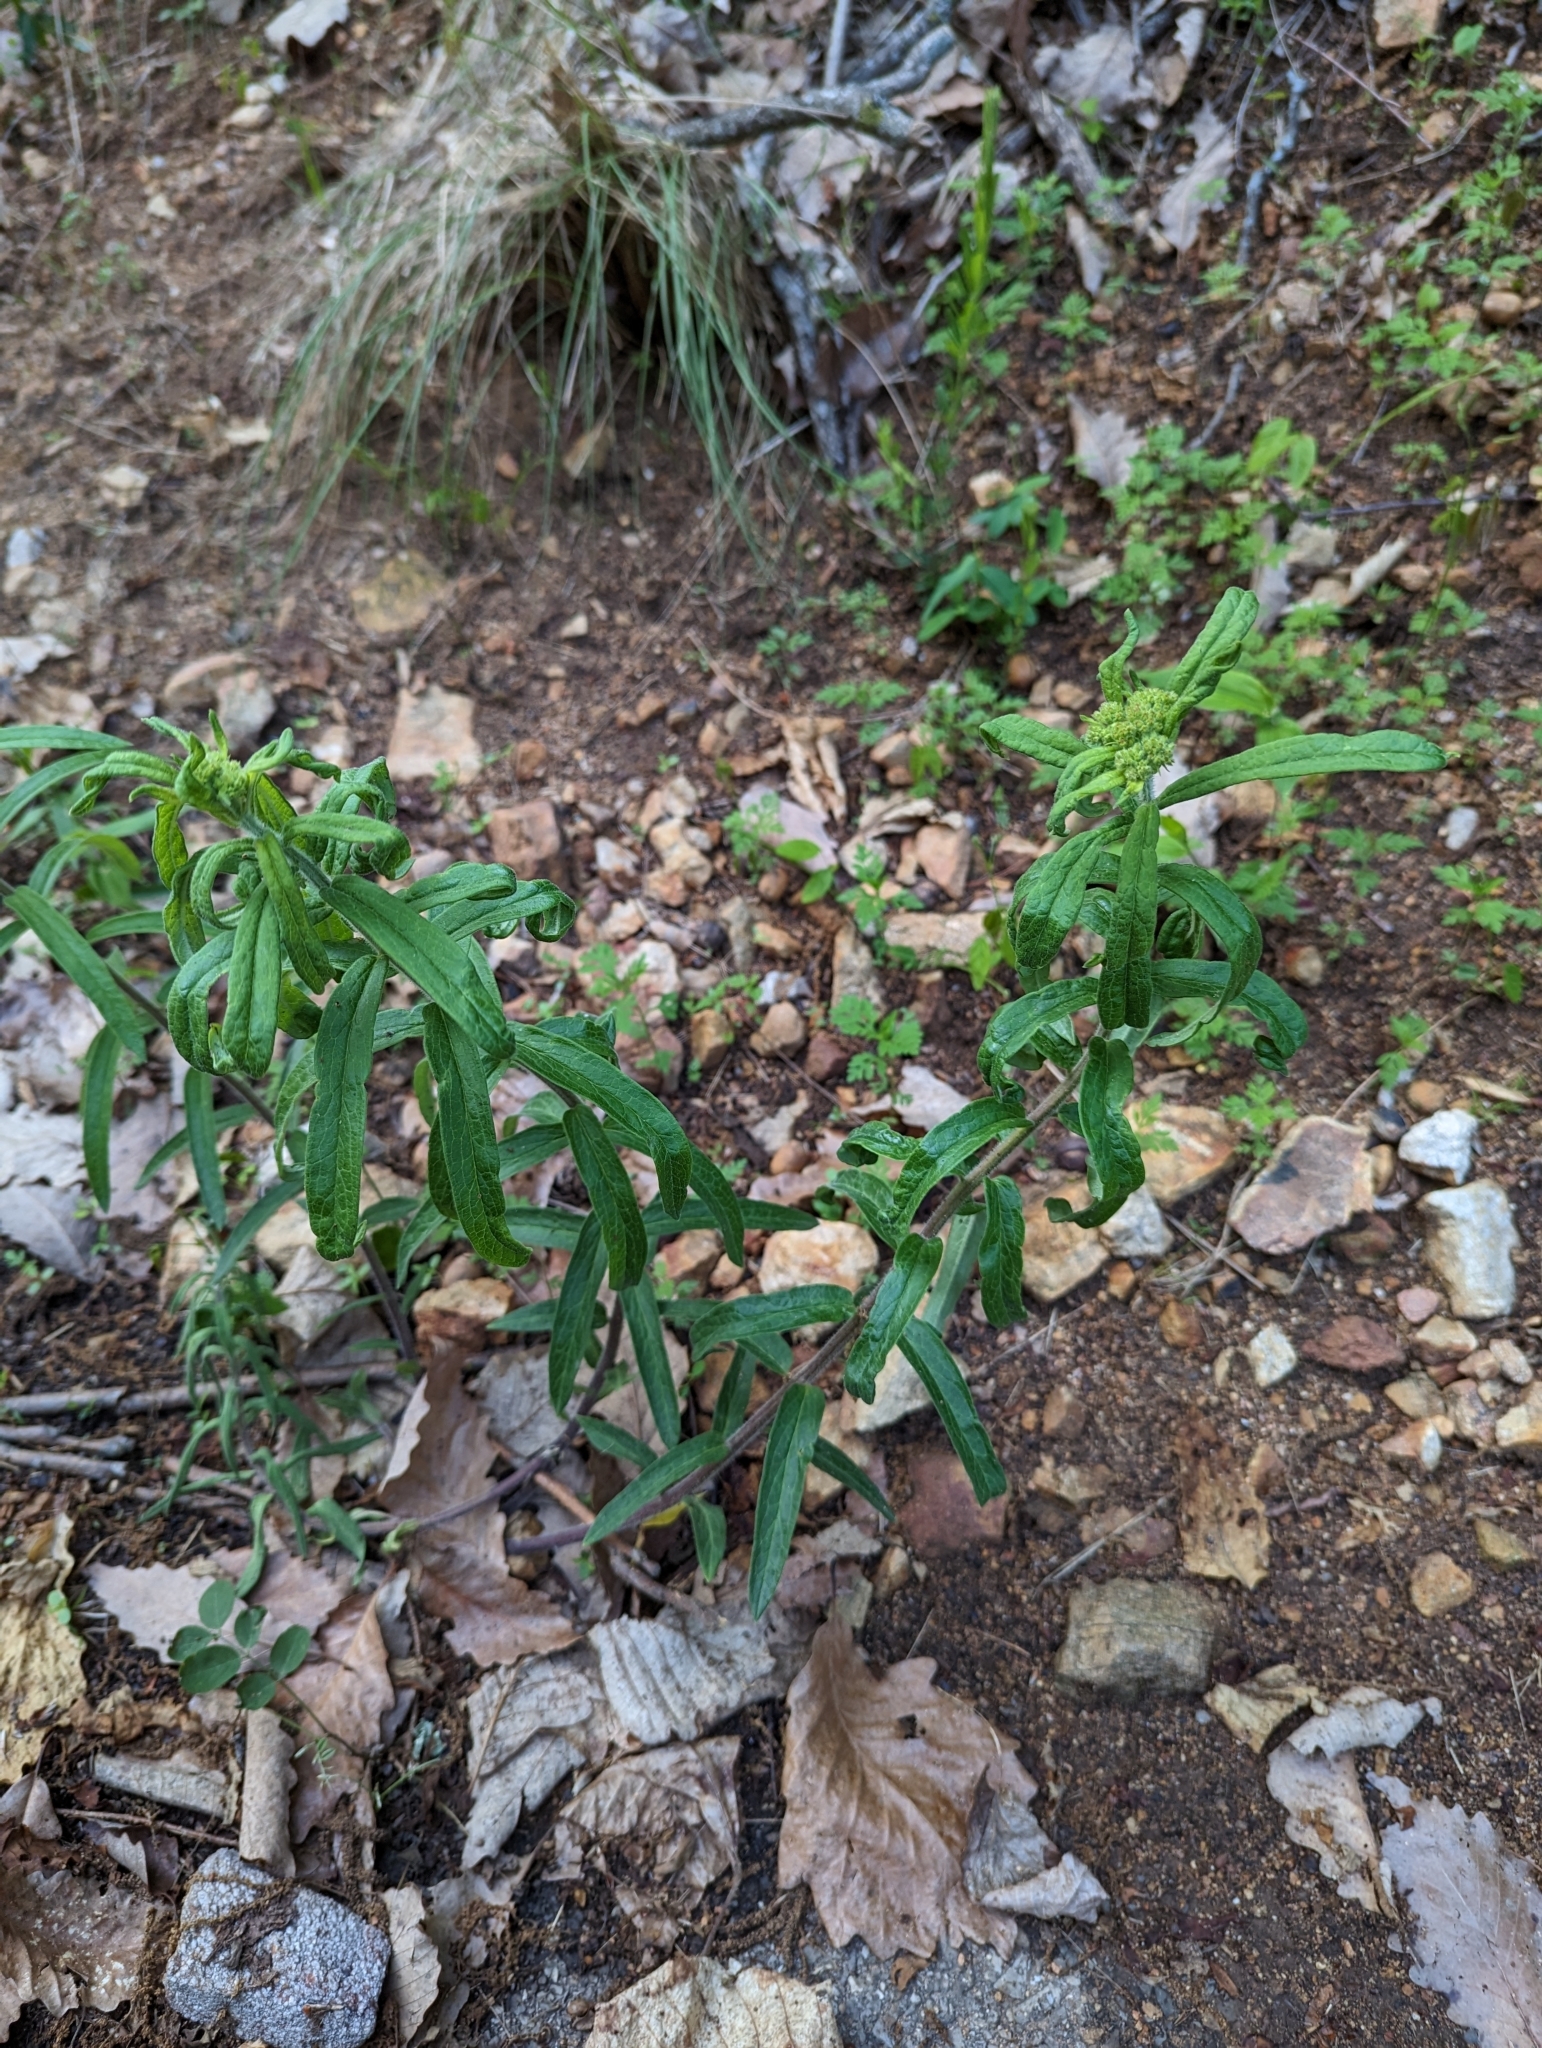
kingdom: Plantae
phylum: Tracheophyta
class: Magnoliopsida
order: Gentianales
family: Apocynaceae
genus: Asclepias
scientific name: Asclepias tuberosa
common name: Butterfly milkweed
